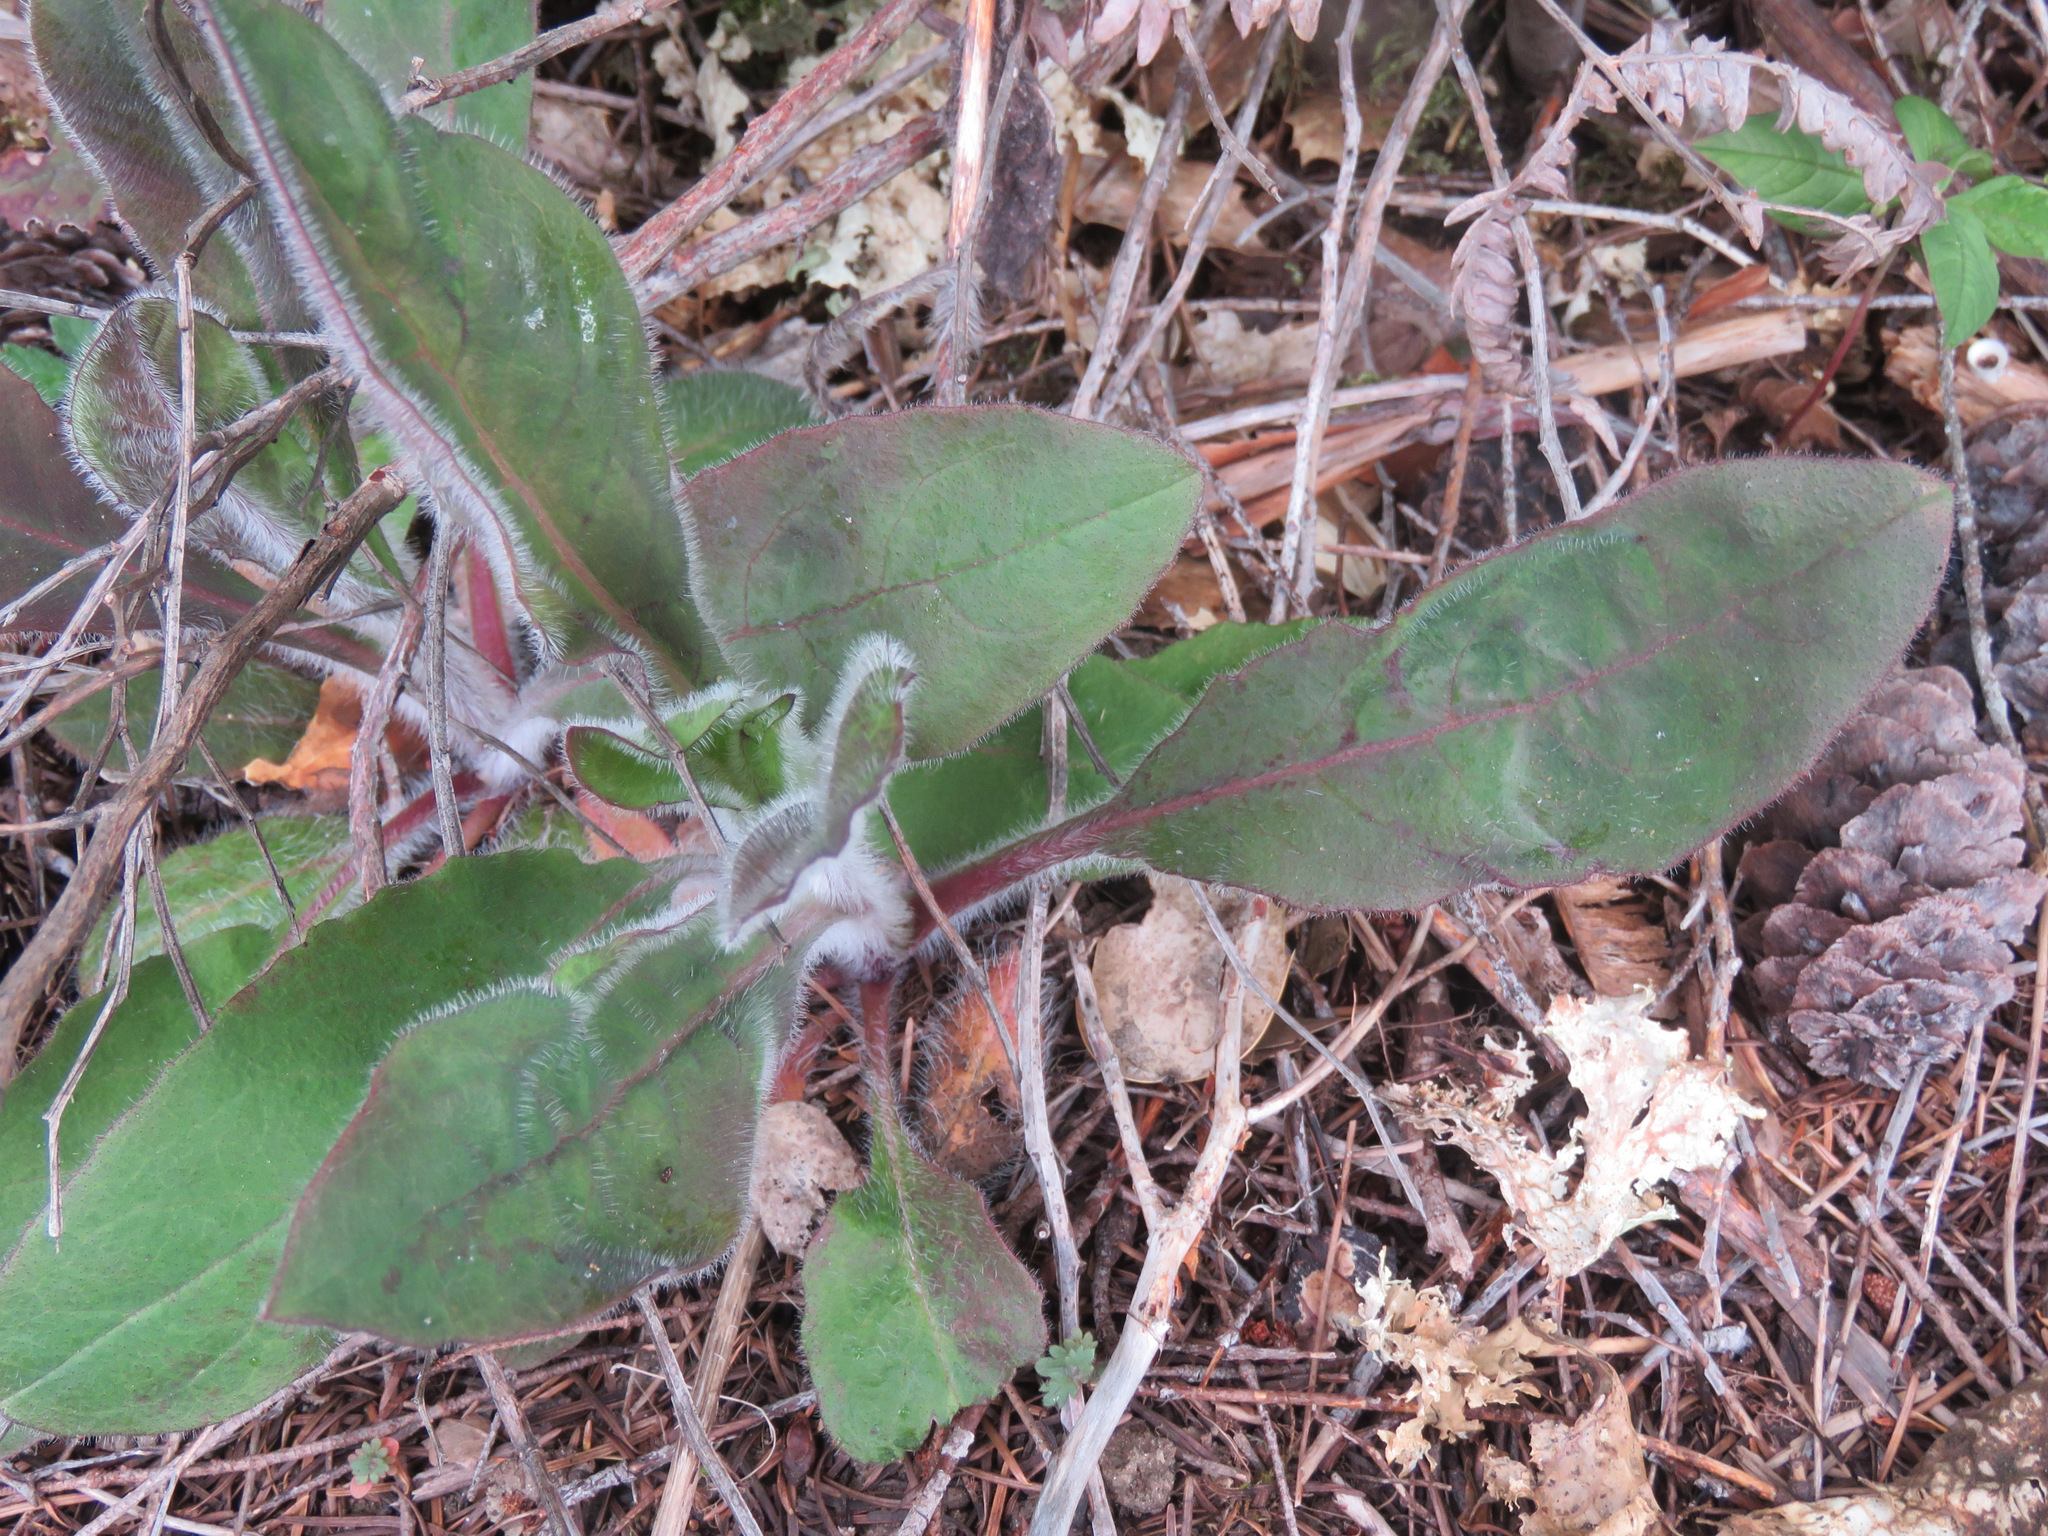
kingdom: Plantae
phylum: Tracheophyta
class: Magnoliopsida
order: Asterales
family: Asteraceae
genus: Hieracium
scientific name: Hieracium albiflorum
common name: White hawkweed
